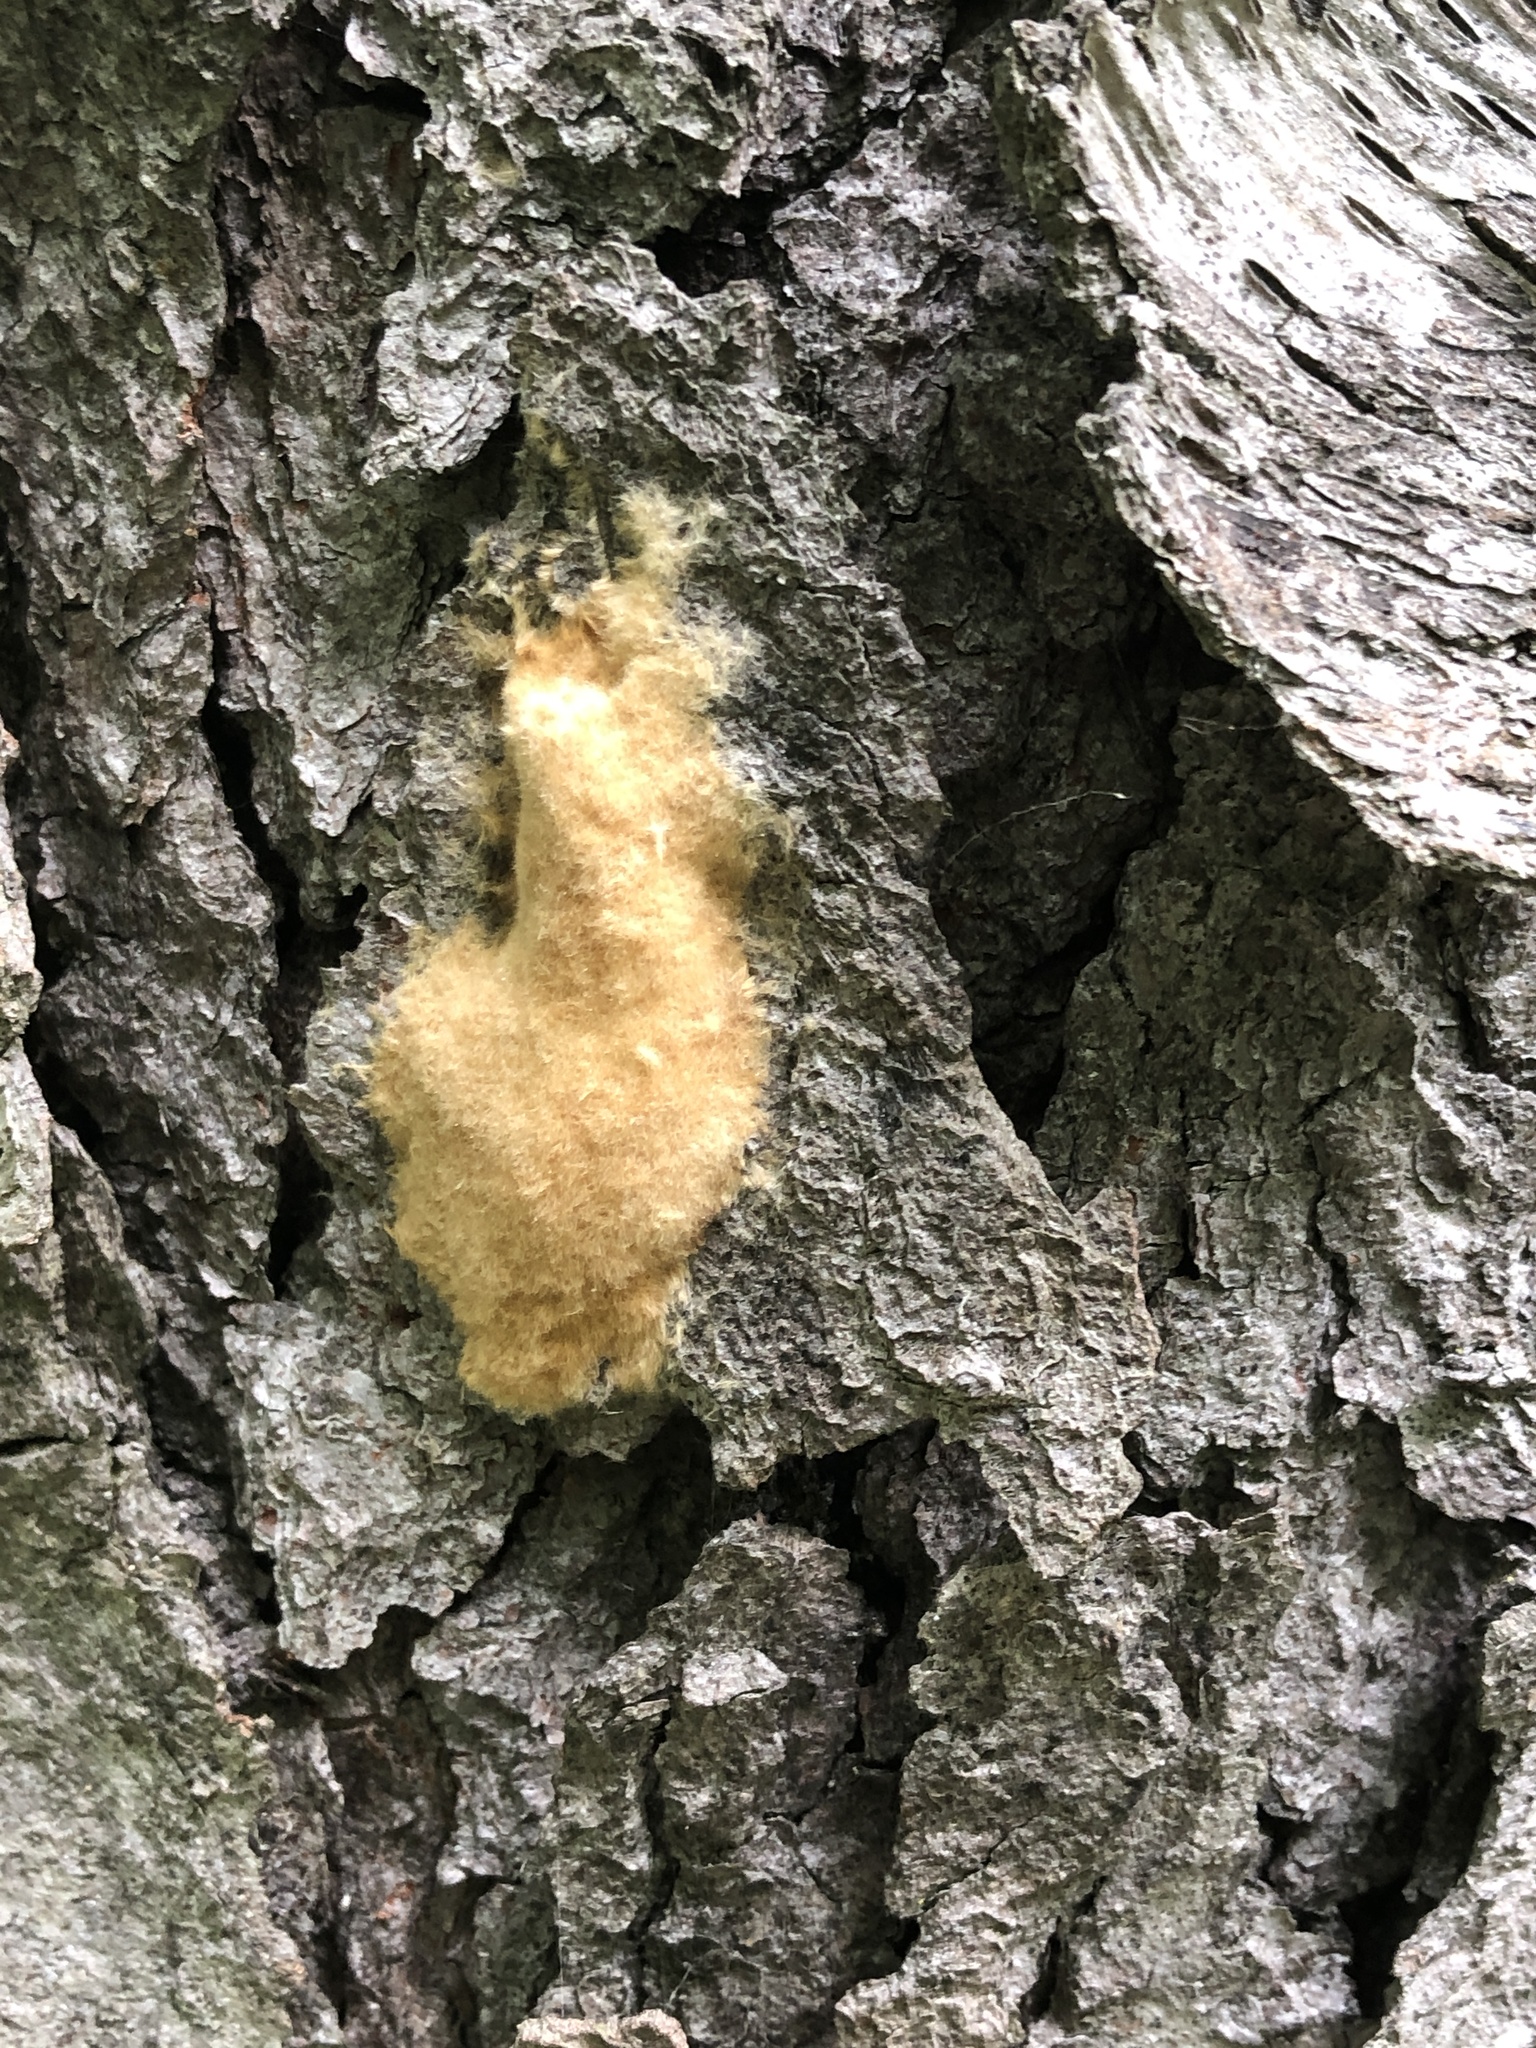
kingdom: Animalia
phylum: Arthropoda
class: Insecta
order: Lepidoptera
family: Erebidae
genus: Lymantria
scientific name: Lymantria dispar
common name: Gypsy moth
